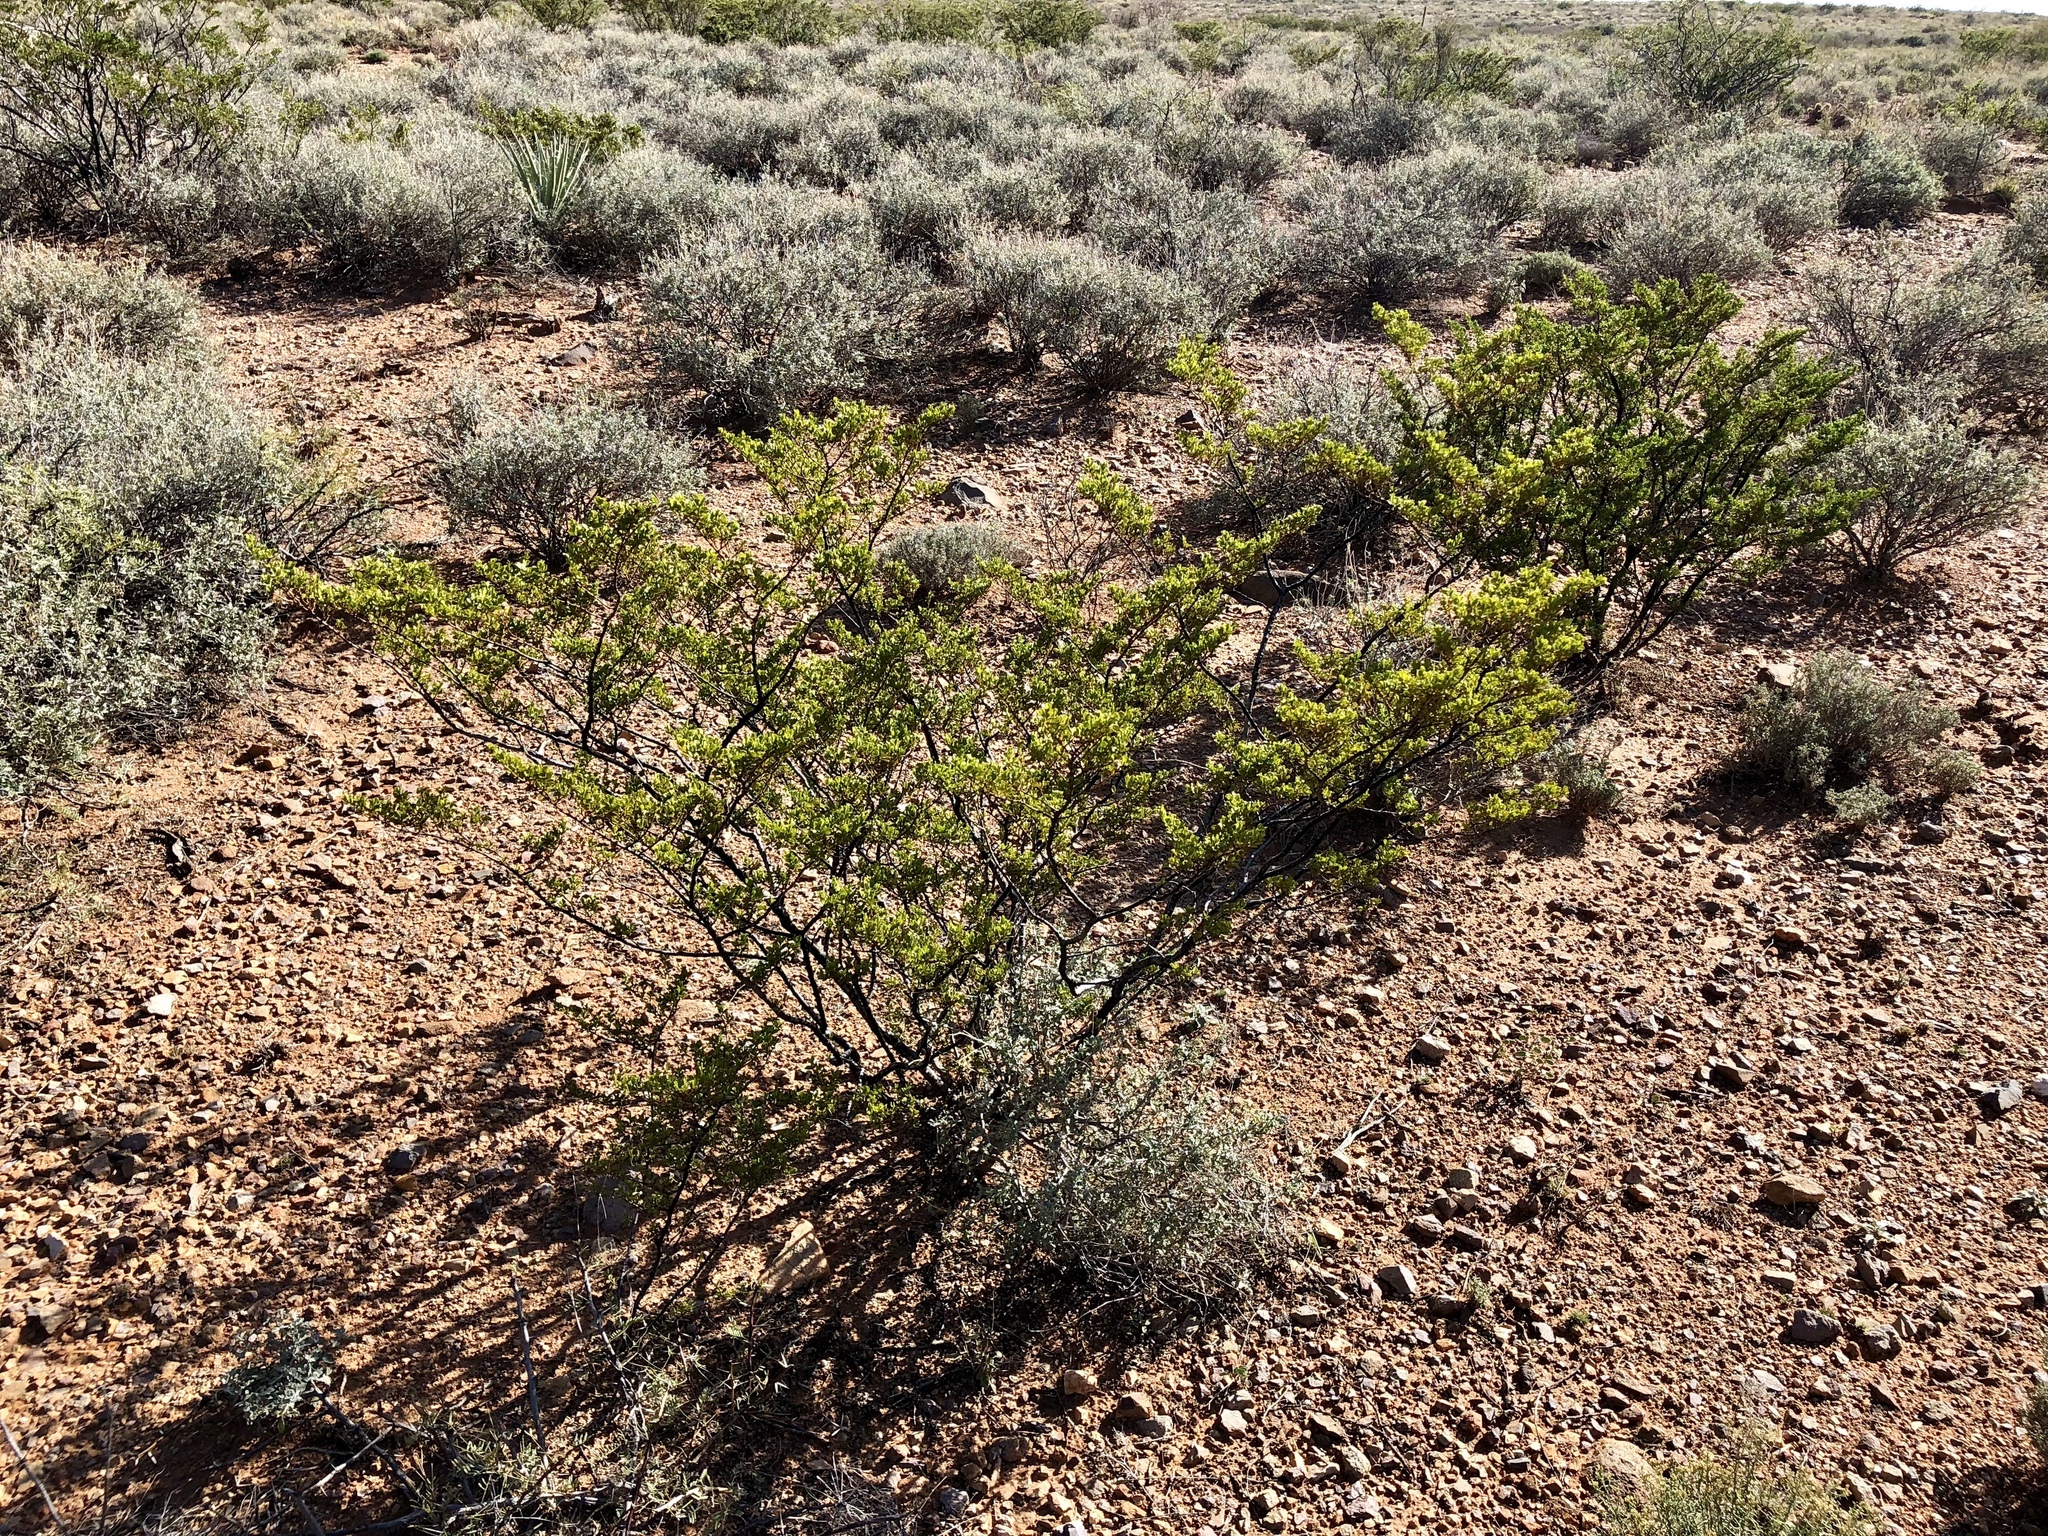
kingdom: Plantae
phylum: Tracheophyta
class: Magnoliopsida
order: Zygophyllales
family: Zygophyllaceae
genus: Larrea
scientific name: Larrea tridentata
